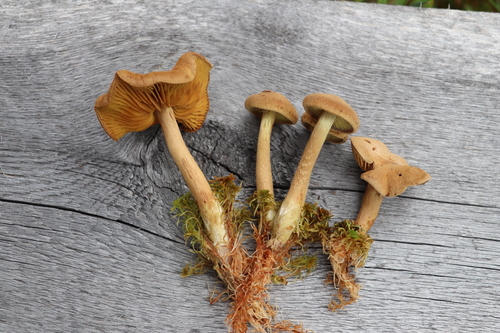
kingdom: Fungi
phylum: Basidiomycota
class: Agaricomycetes
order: Agaricales
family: Cortinariaceae
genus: Cortinarius
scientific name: Cortinarius chrysolitus
